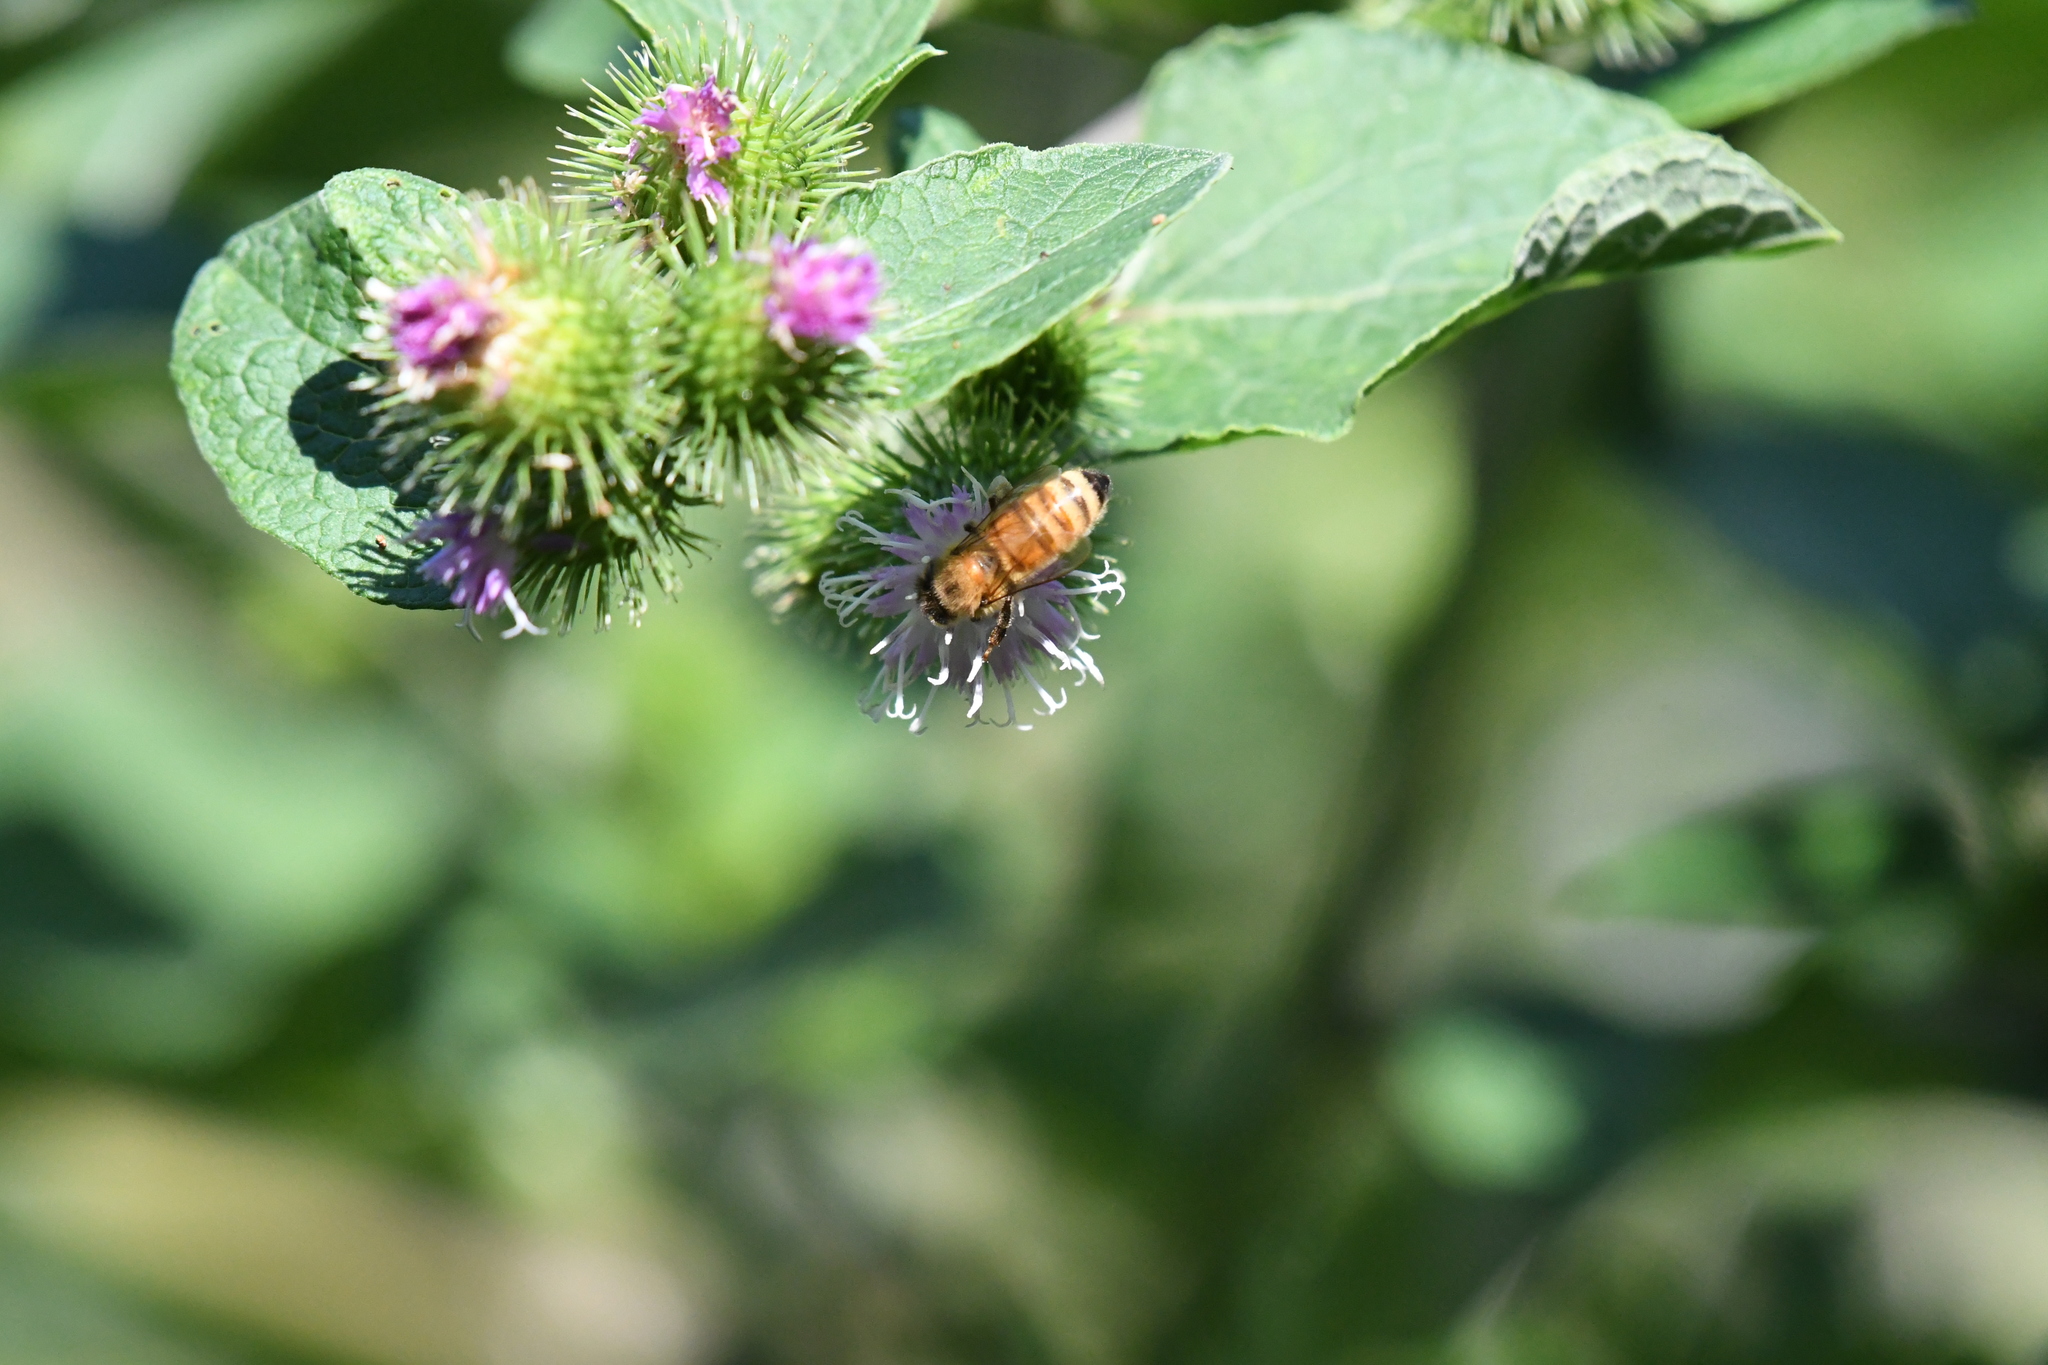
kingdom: Animalia
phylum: Arthropoda
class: Insecta
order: Hymenoptera
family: Apidae
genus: Apis
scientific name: Apis mellifera
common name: Honey bee
